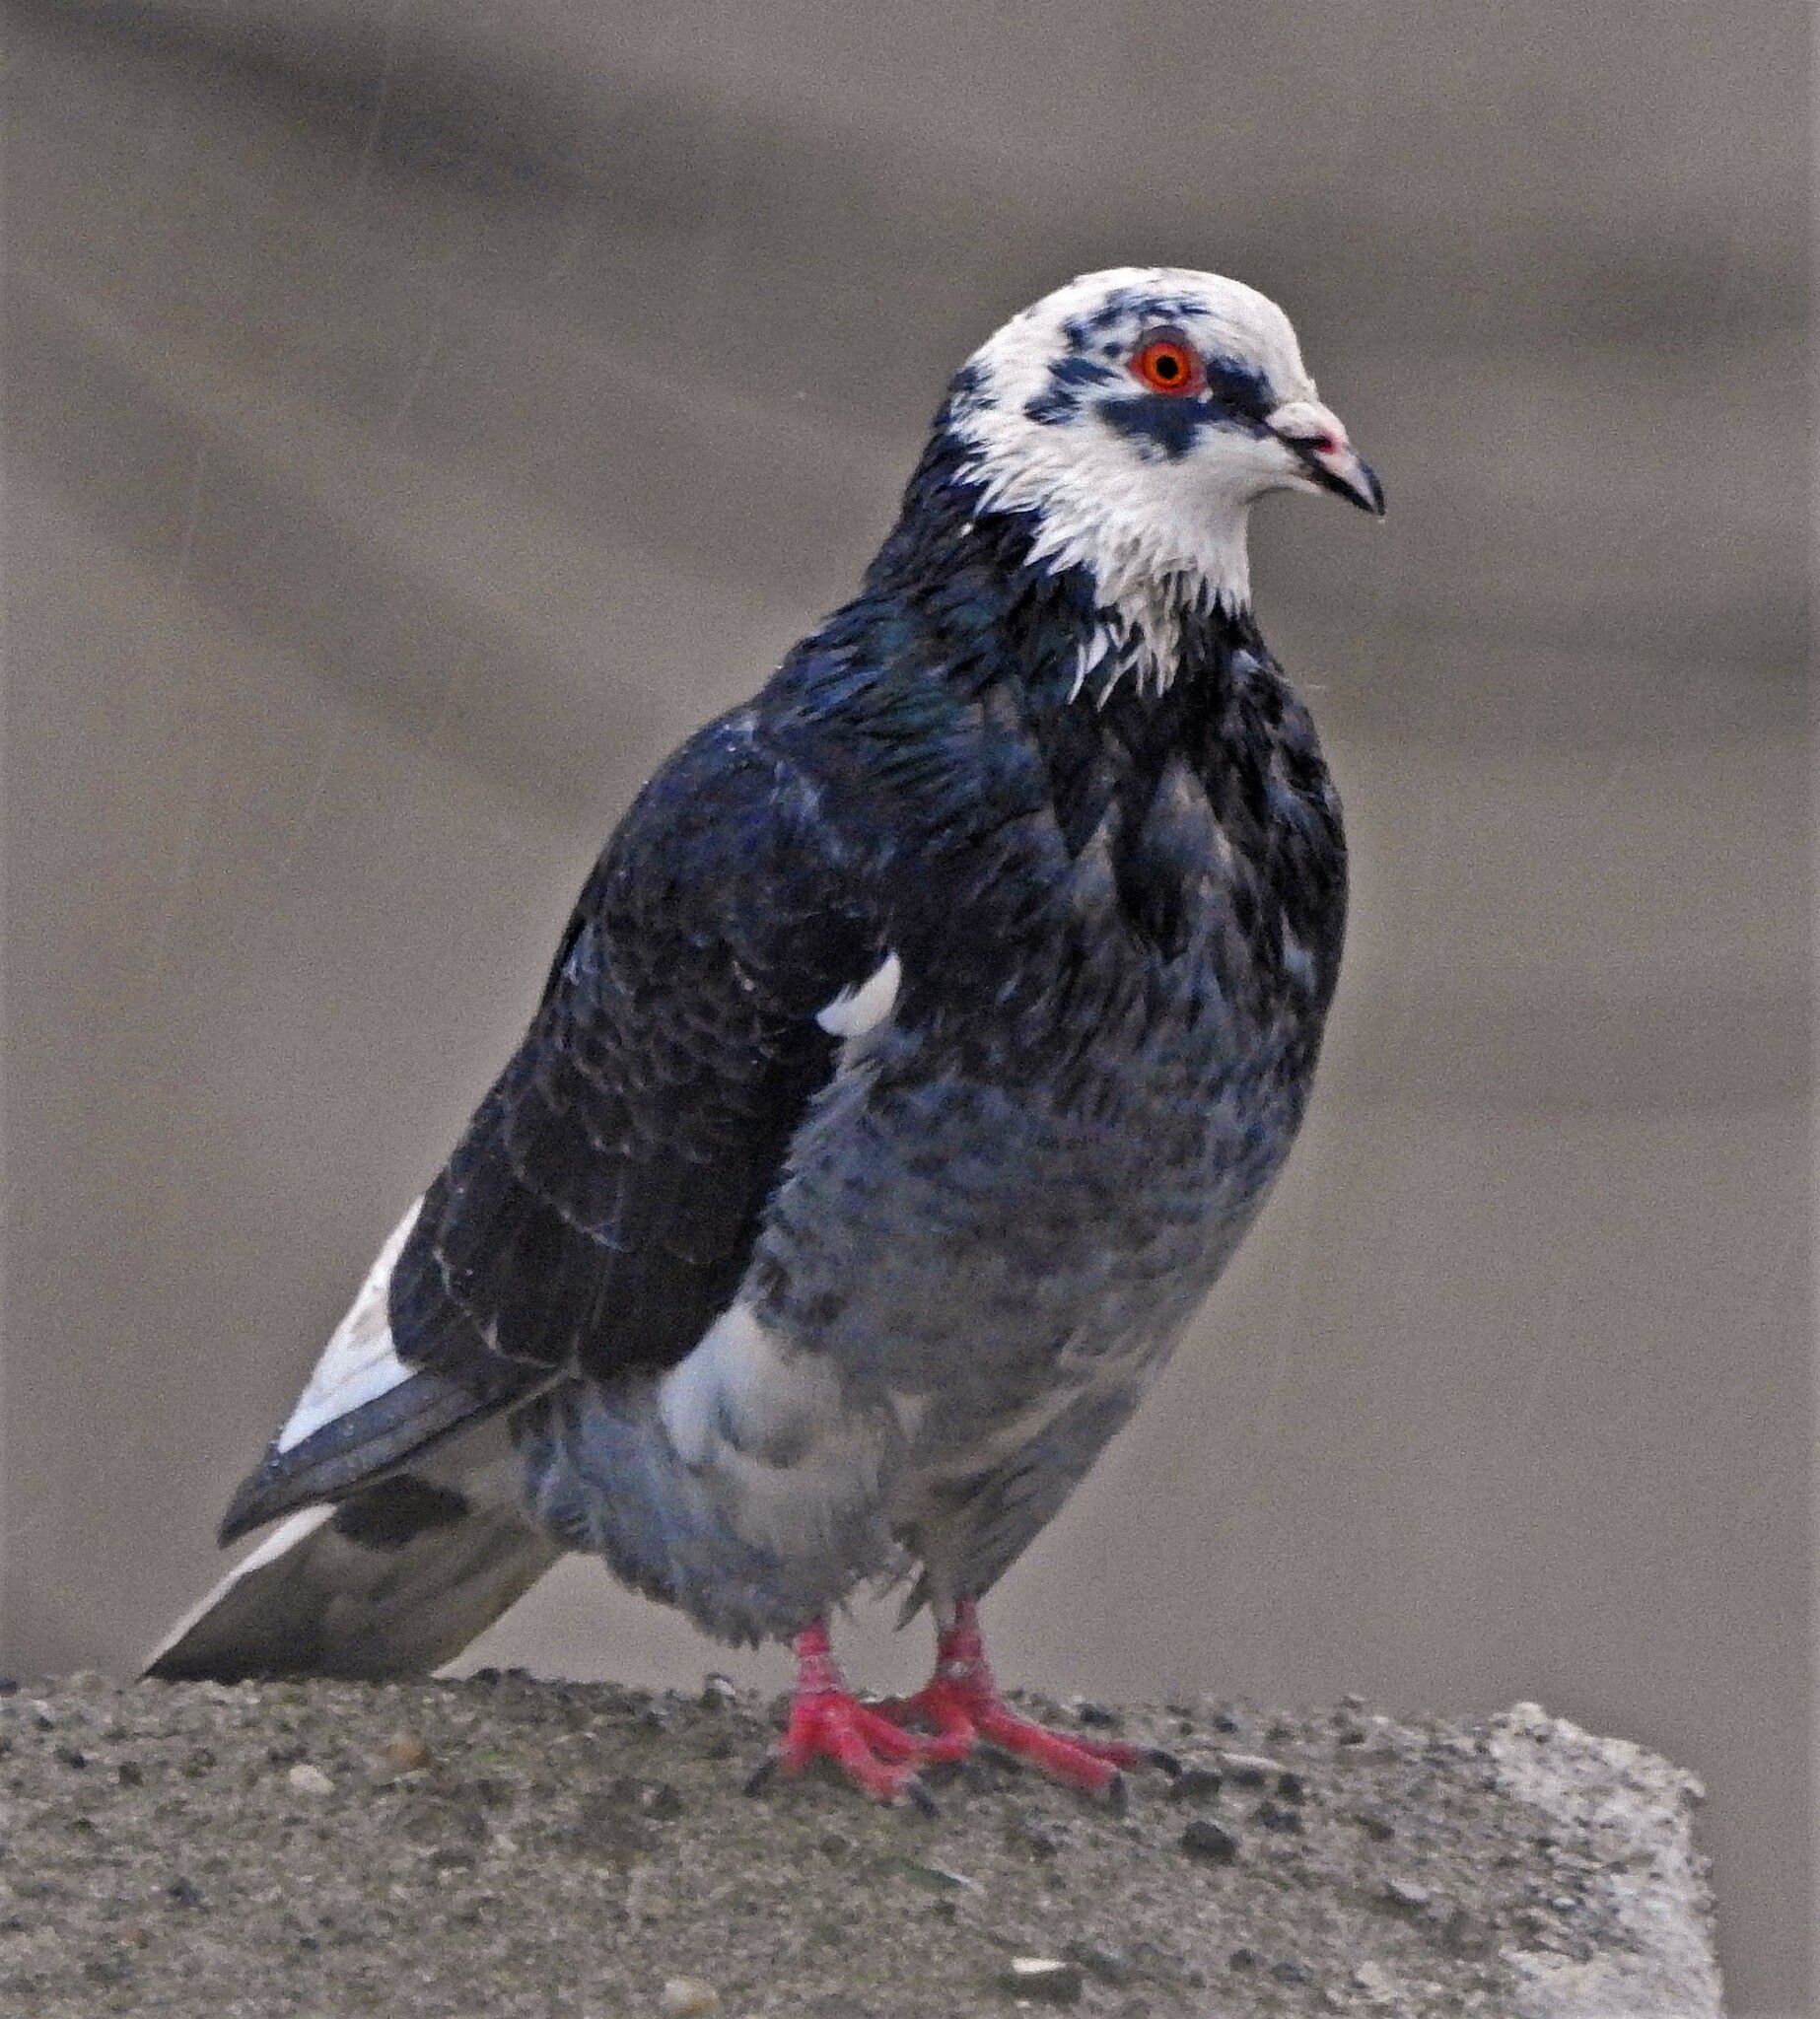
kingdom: Animalia
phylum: Chordata
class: Aves
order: Columbiformes
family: Columbidae
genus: Columba
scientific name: Columba livia
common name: Rock pigeon
